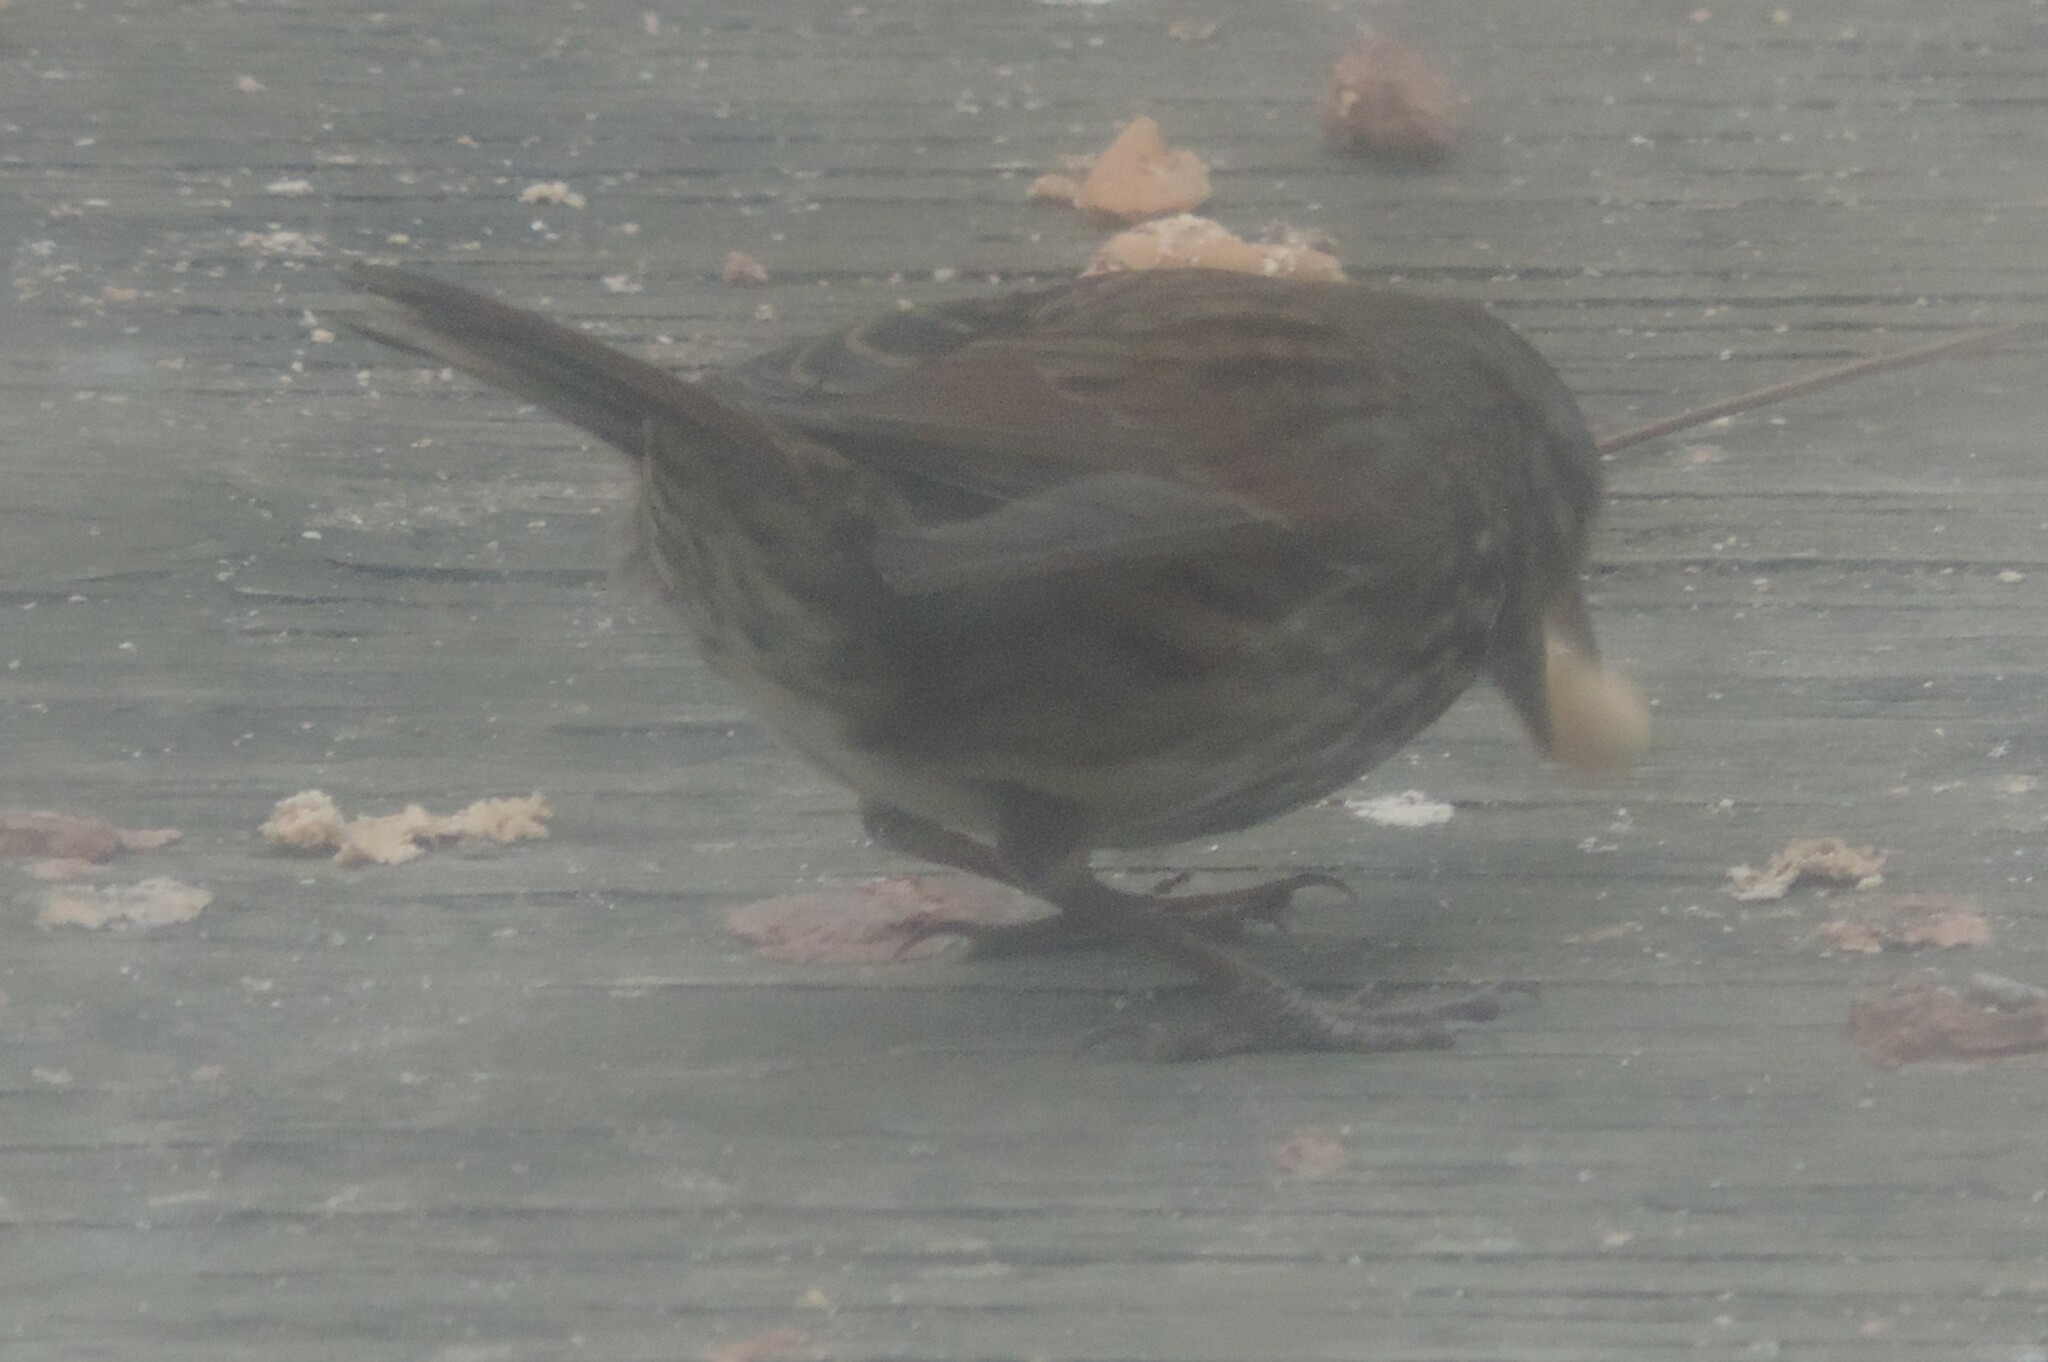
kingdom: Animalia
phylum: Chordata
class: Aves
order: Passeriformes
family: Passerellidae
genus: Melospiza
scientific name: Melospiza melodia
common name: Song sparrow
